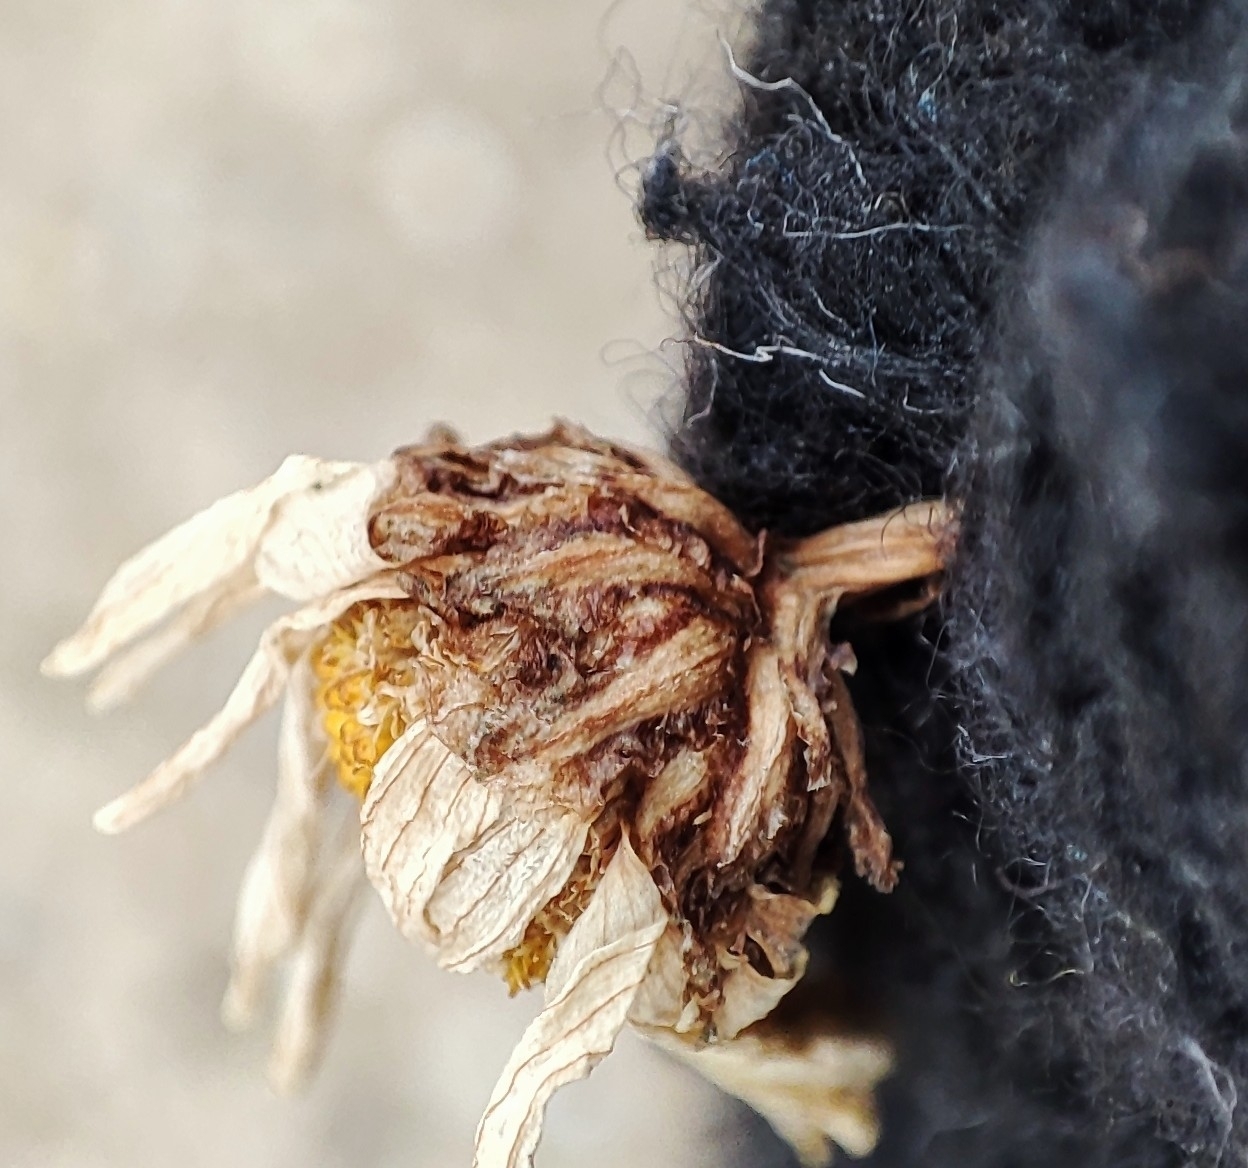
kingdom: Plantae
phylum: Tracheophyta
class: Magnoliopsida
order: Asterales
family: Asteraceae
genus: Tripleurospermum
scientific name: Tripleurospermum inodorum
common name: Scentless mayweed
